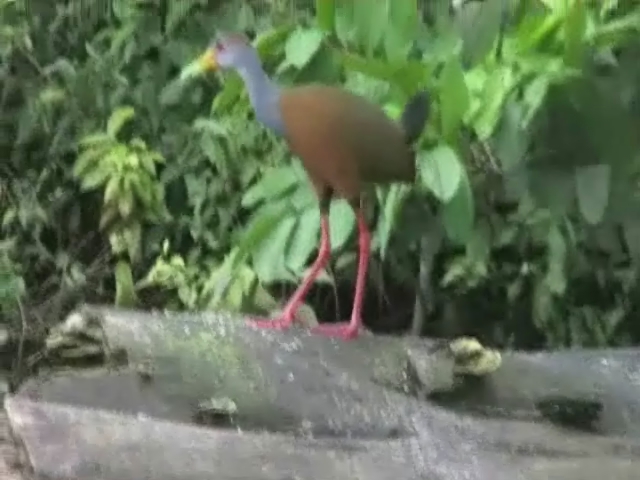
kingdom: Animalia
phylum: Chordata
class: Aves
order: Gruiformes
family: Rallidae
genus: Aramides
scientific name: Aramides albiventris
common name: Russet-naped wood-rail
